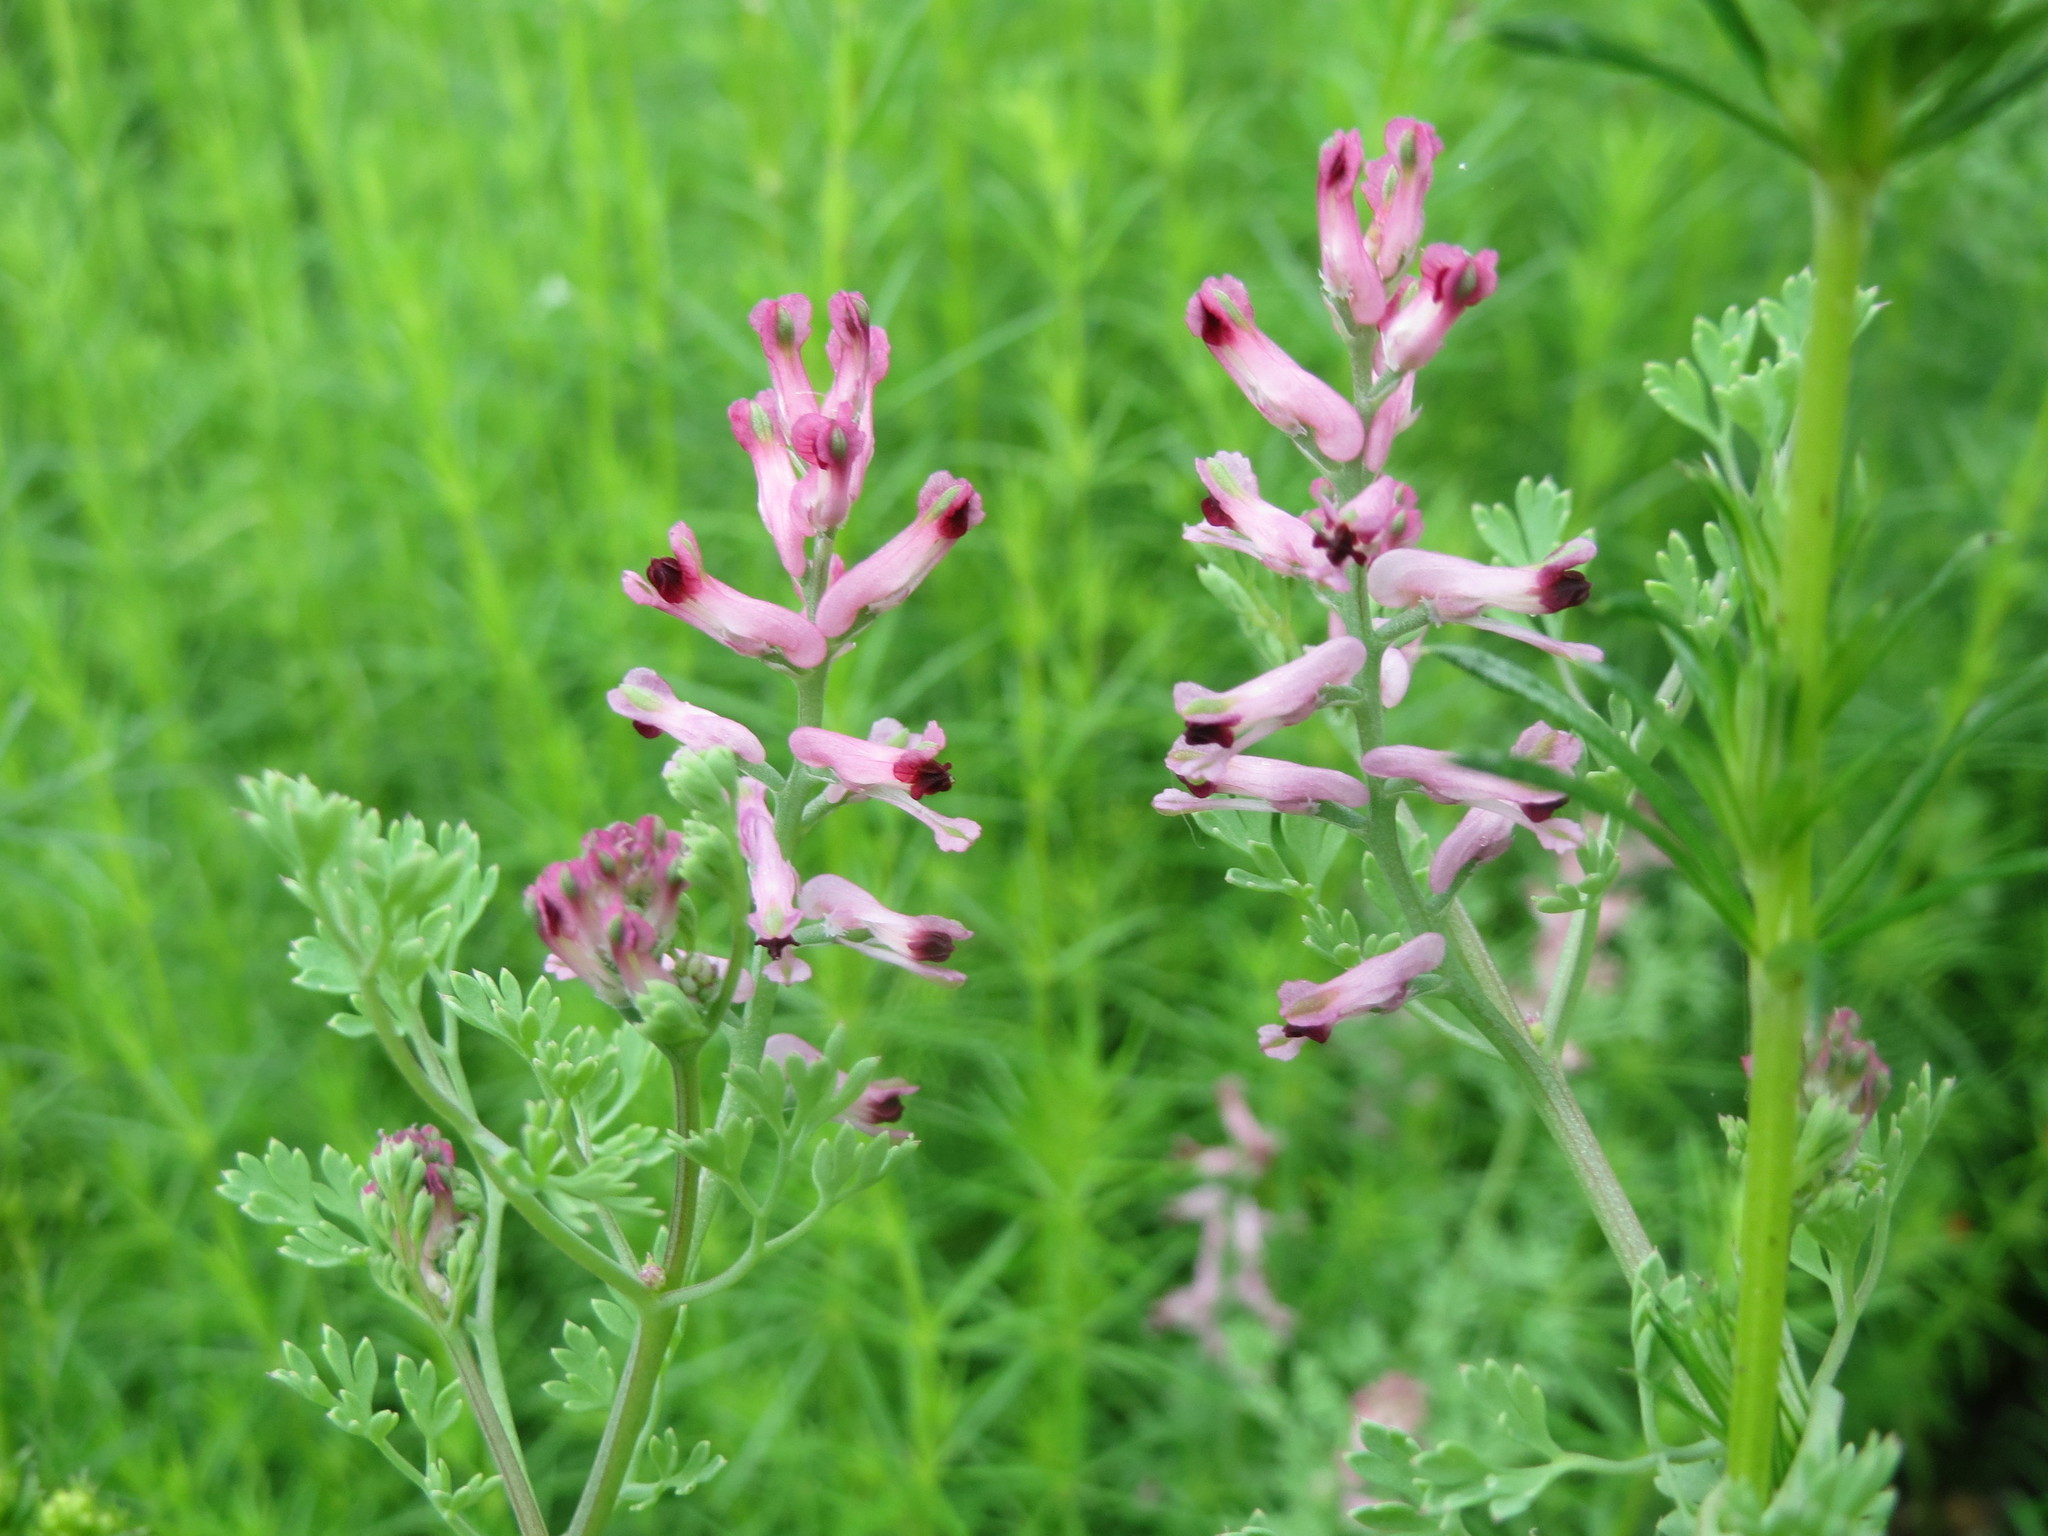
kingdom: Plantae
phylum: Tracheophyta
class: Magnoliopsida
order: Ranunculales
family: Papaveraceae
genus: Fumaria
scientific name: Fumaria officinalis
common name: Common fumitory
